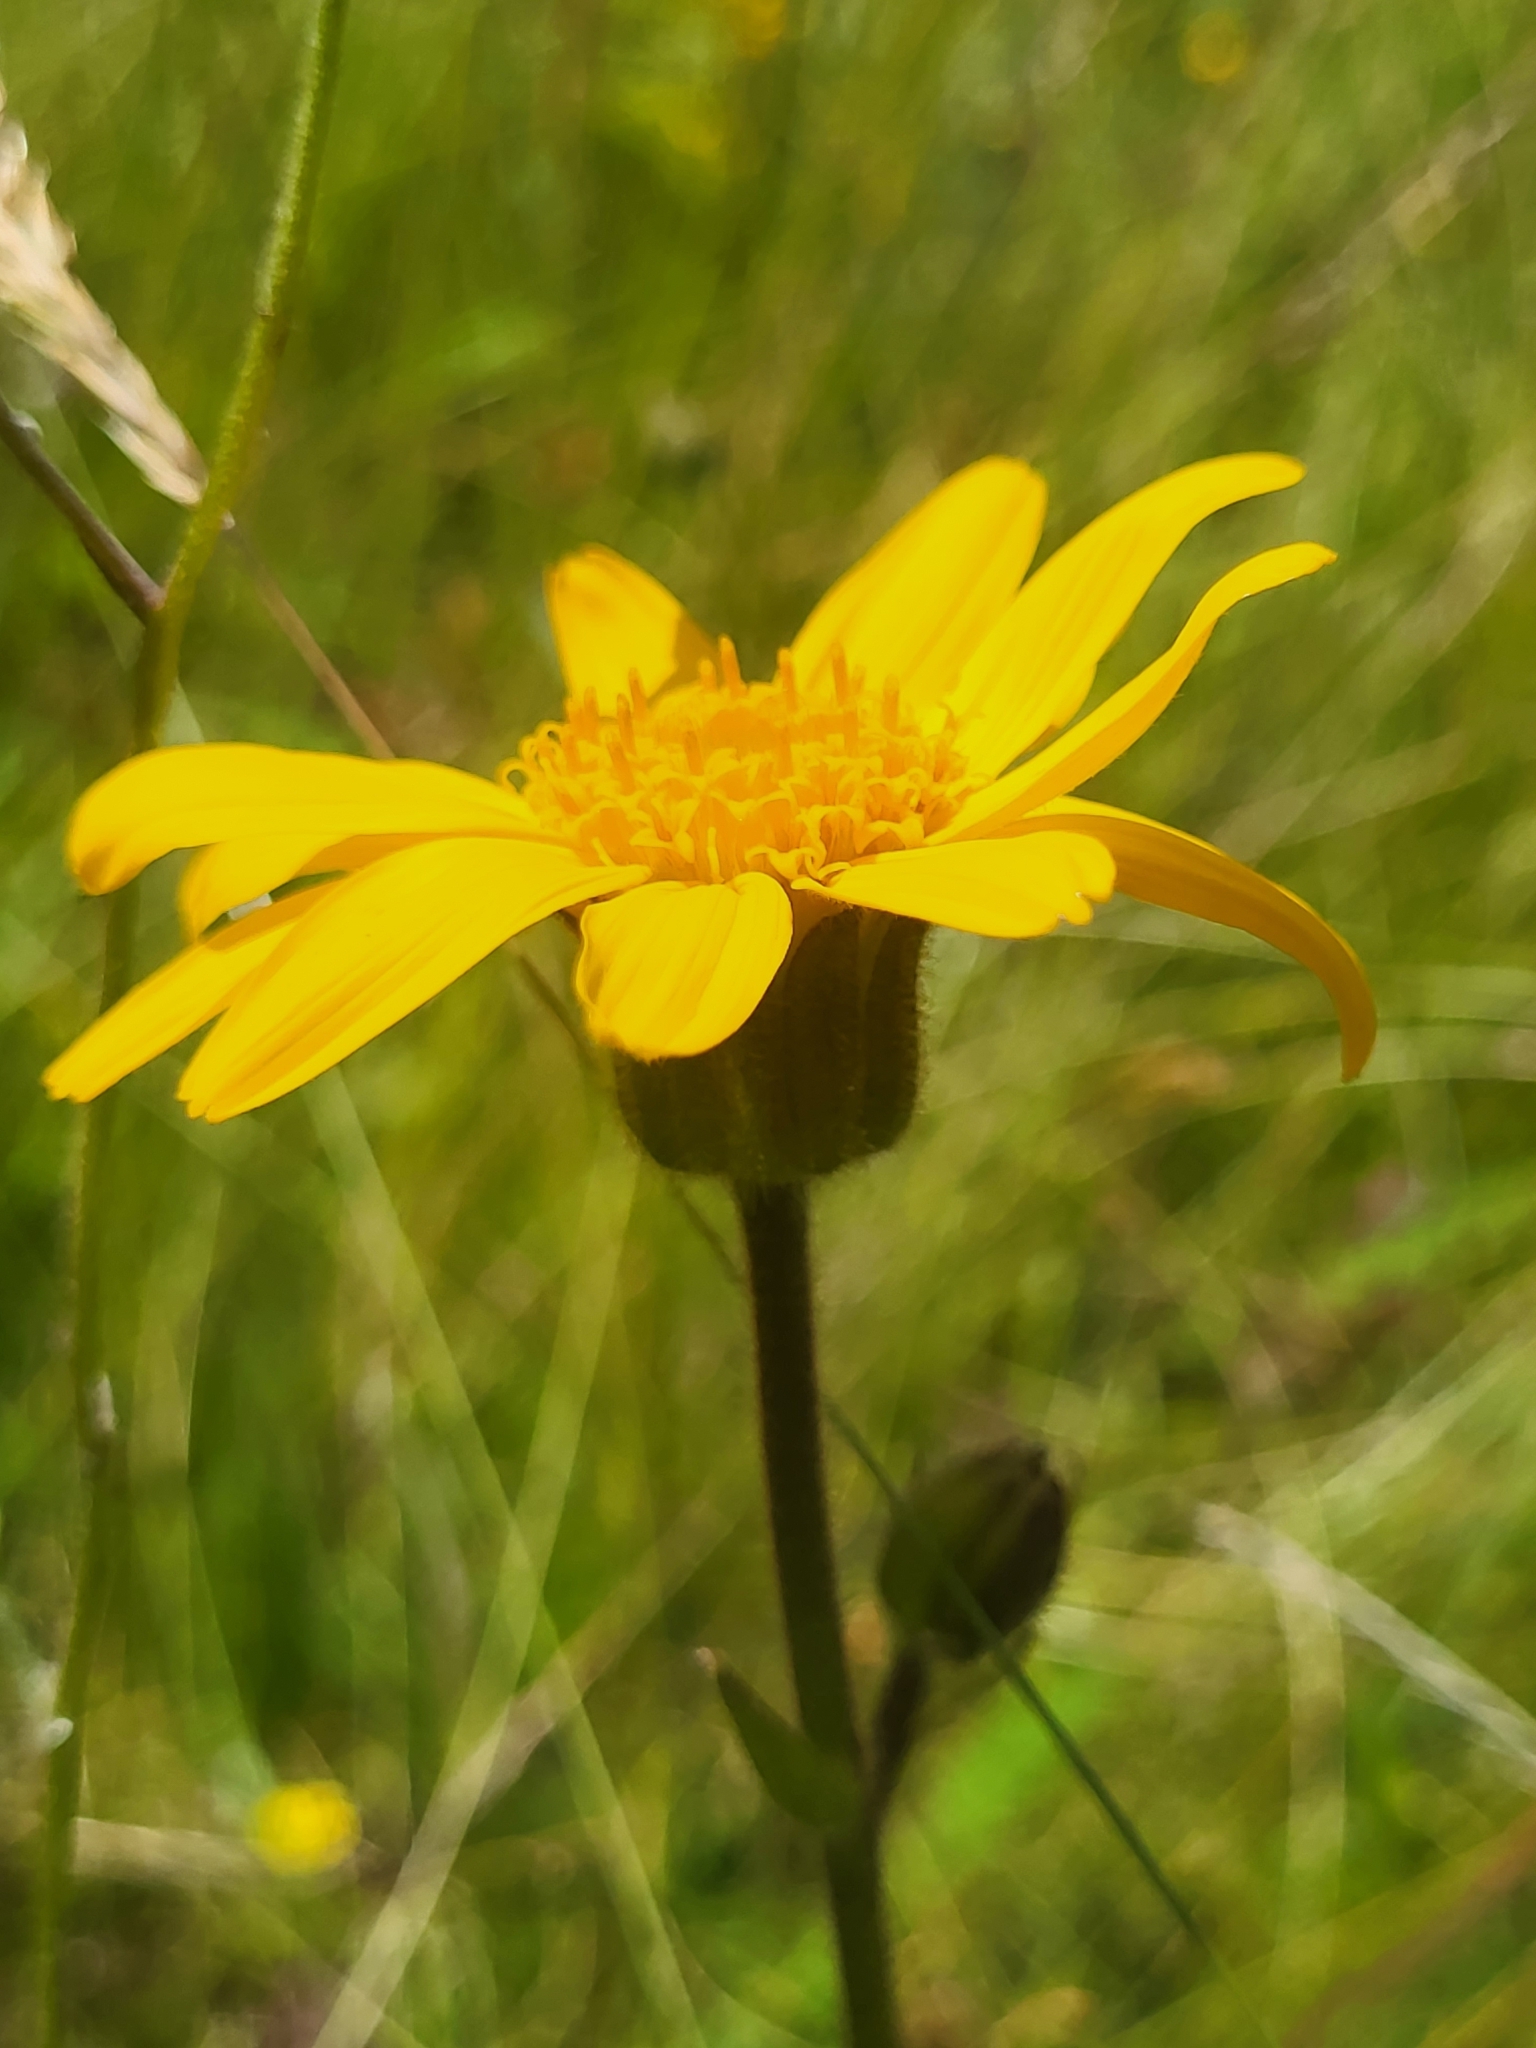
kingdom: Plantae
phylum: Tracheophyta
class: Magnoliopsida
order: Asterales
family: Asteraceae
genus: Arnica
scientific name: Arnica montana
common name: Leopard's bane
